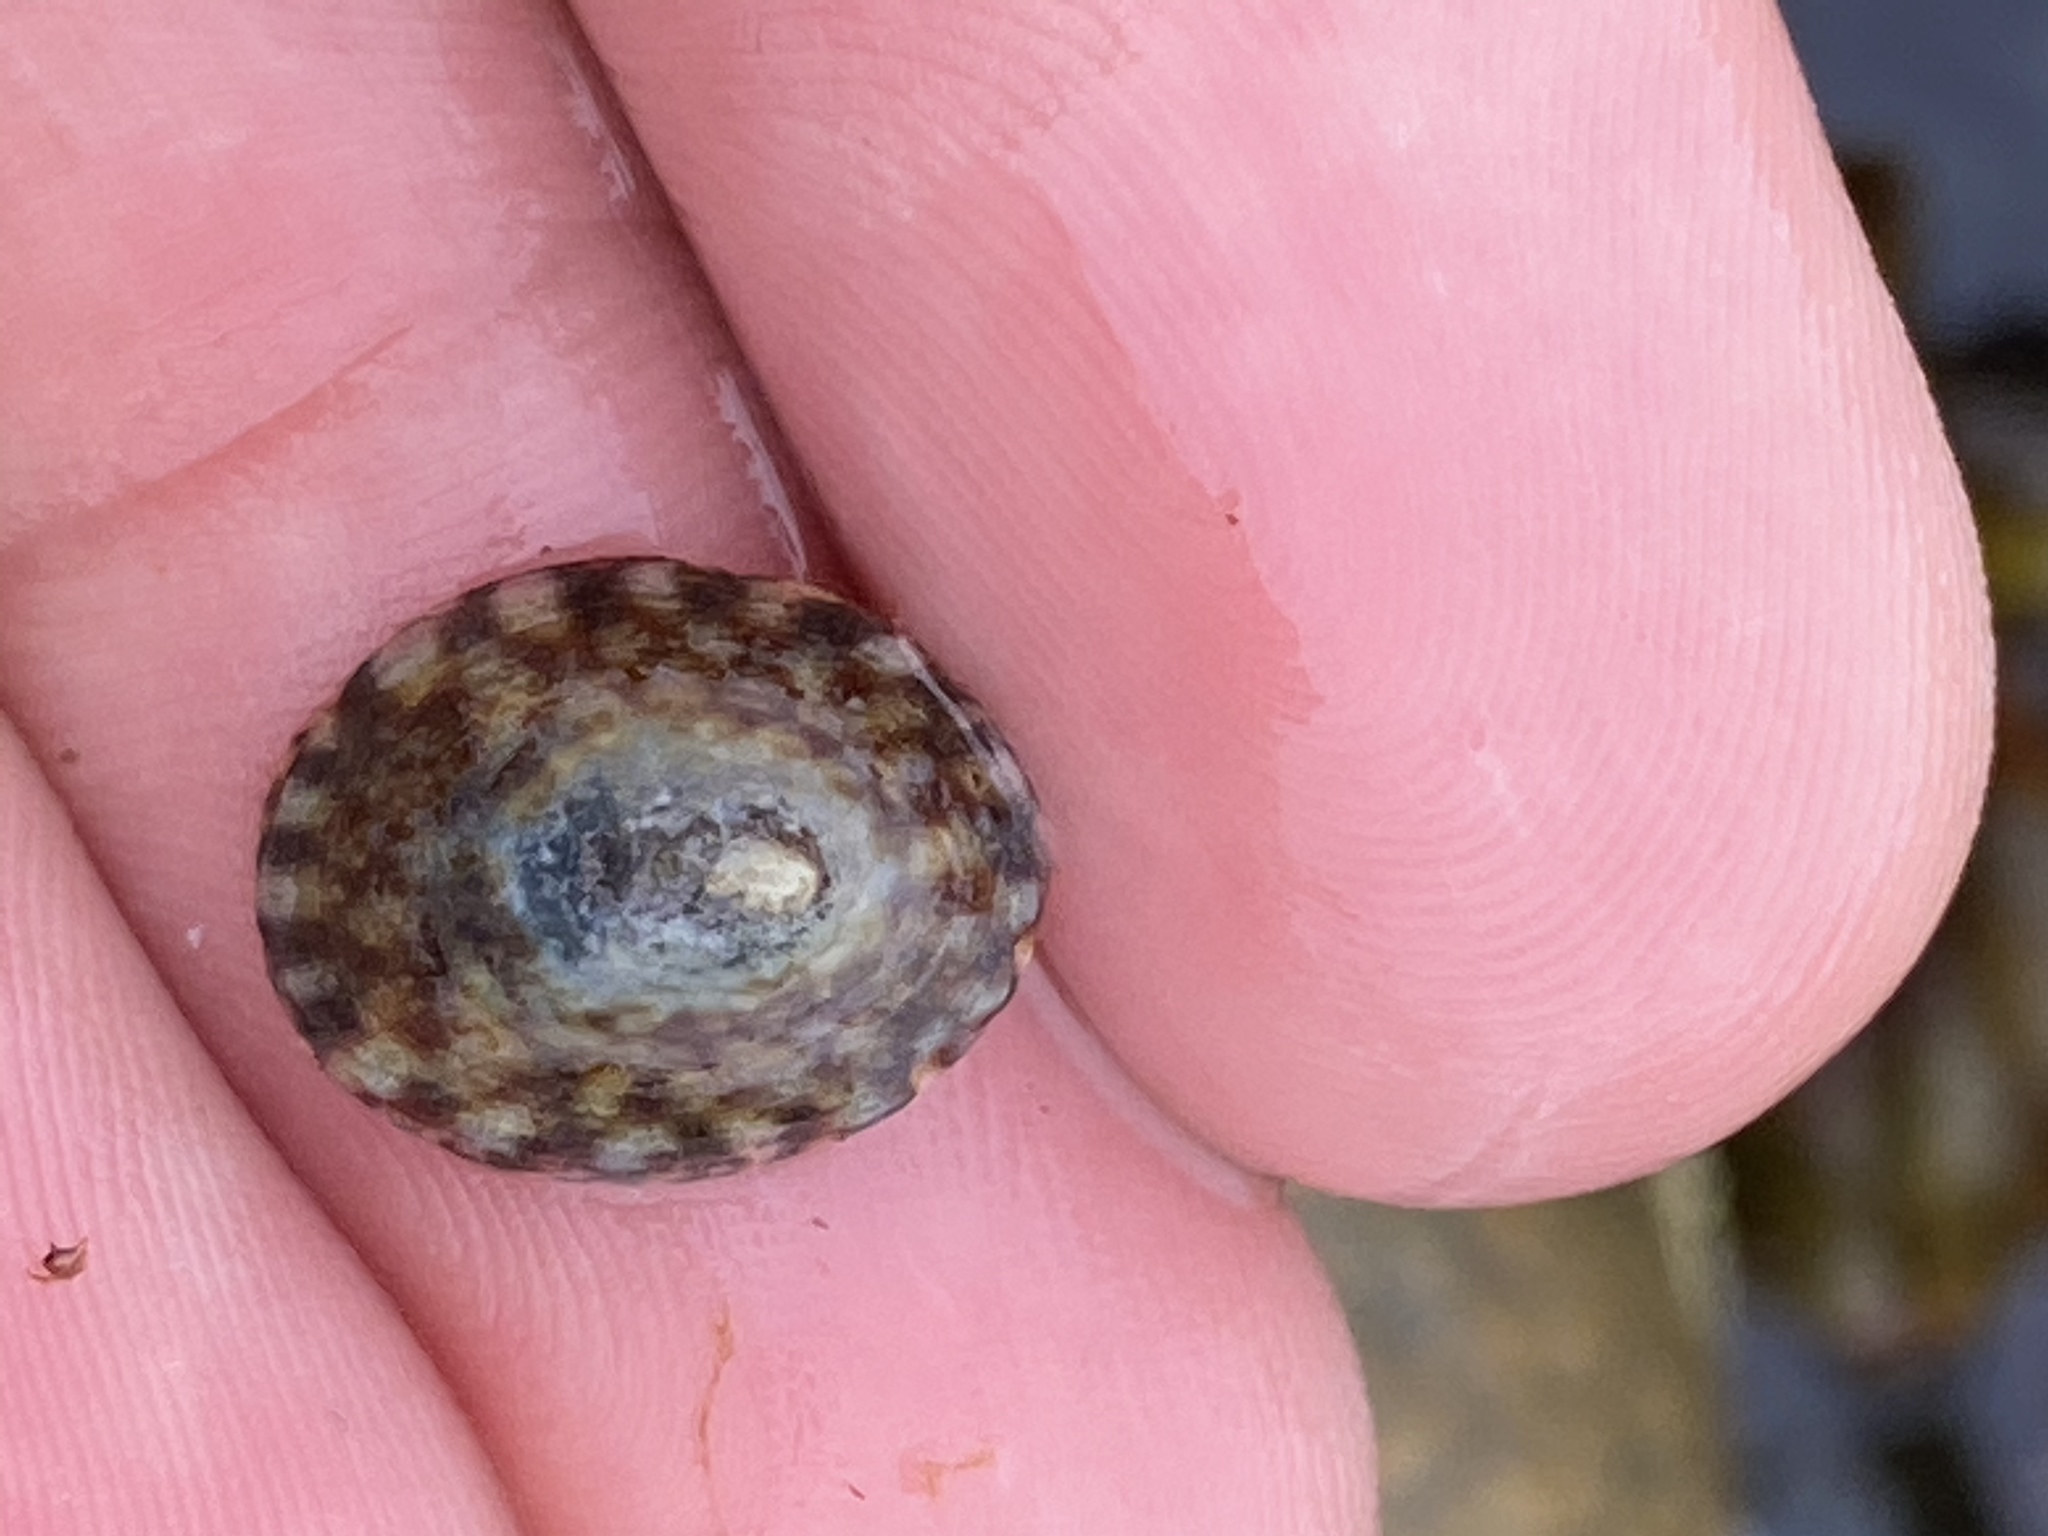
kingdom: Animalia
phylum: Mollusca
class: Gastropoda
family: Lottiidae
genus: Testudinalia
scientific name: Testudinalia testudinalis
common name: Common tortoiseshell limpet
